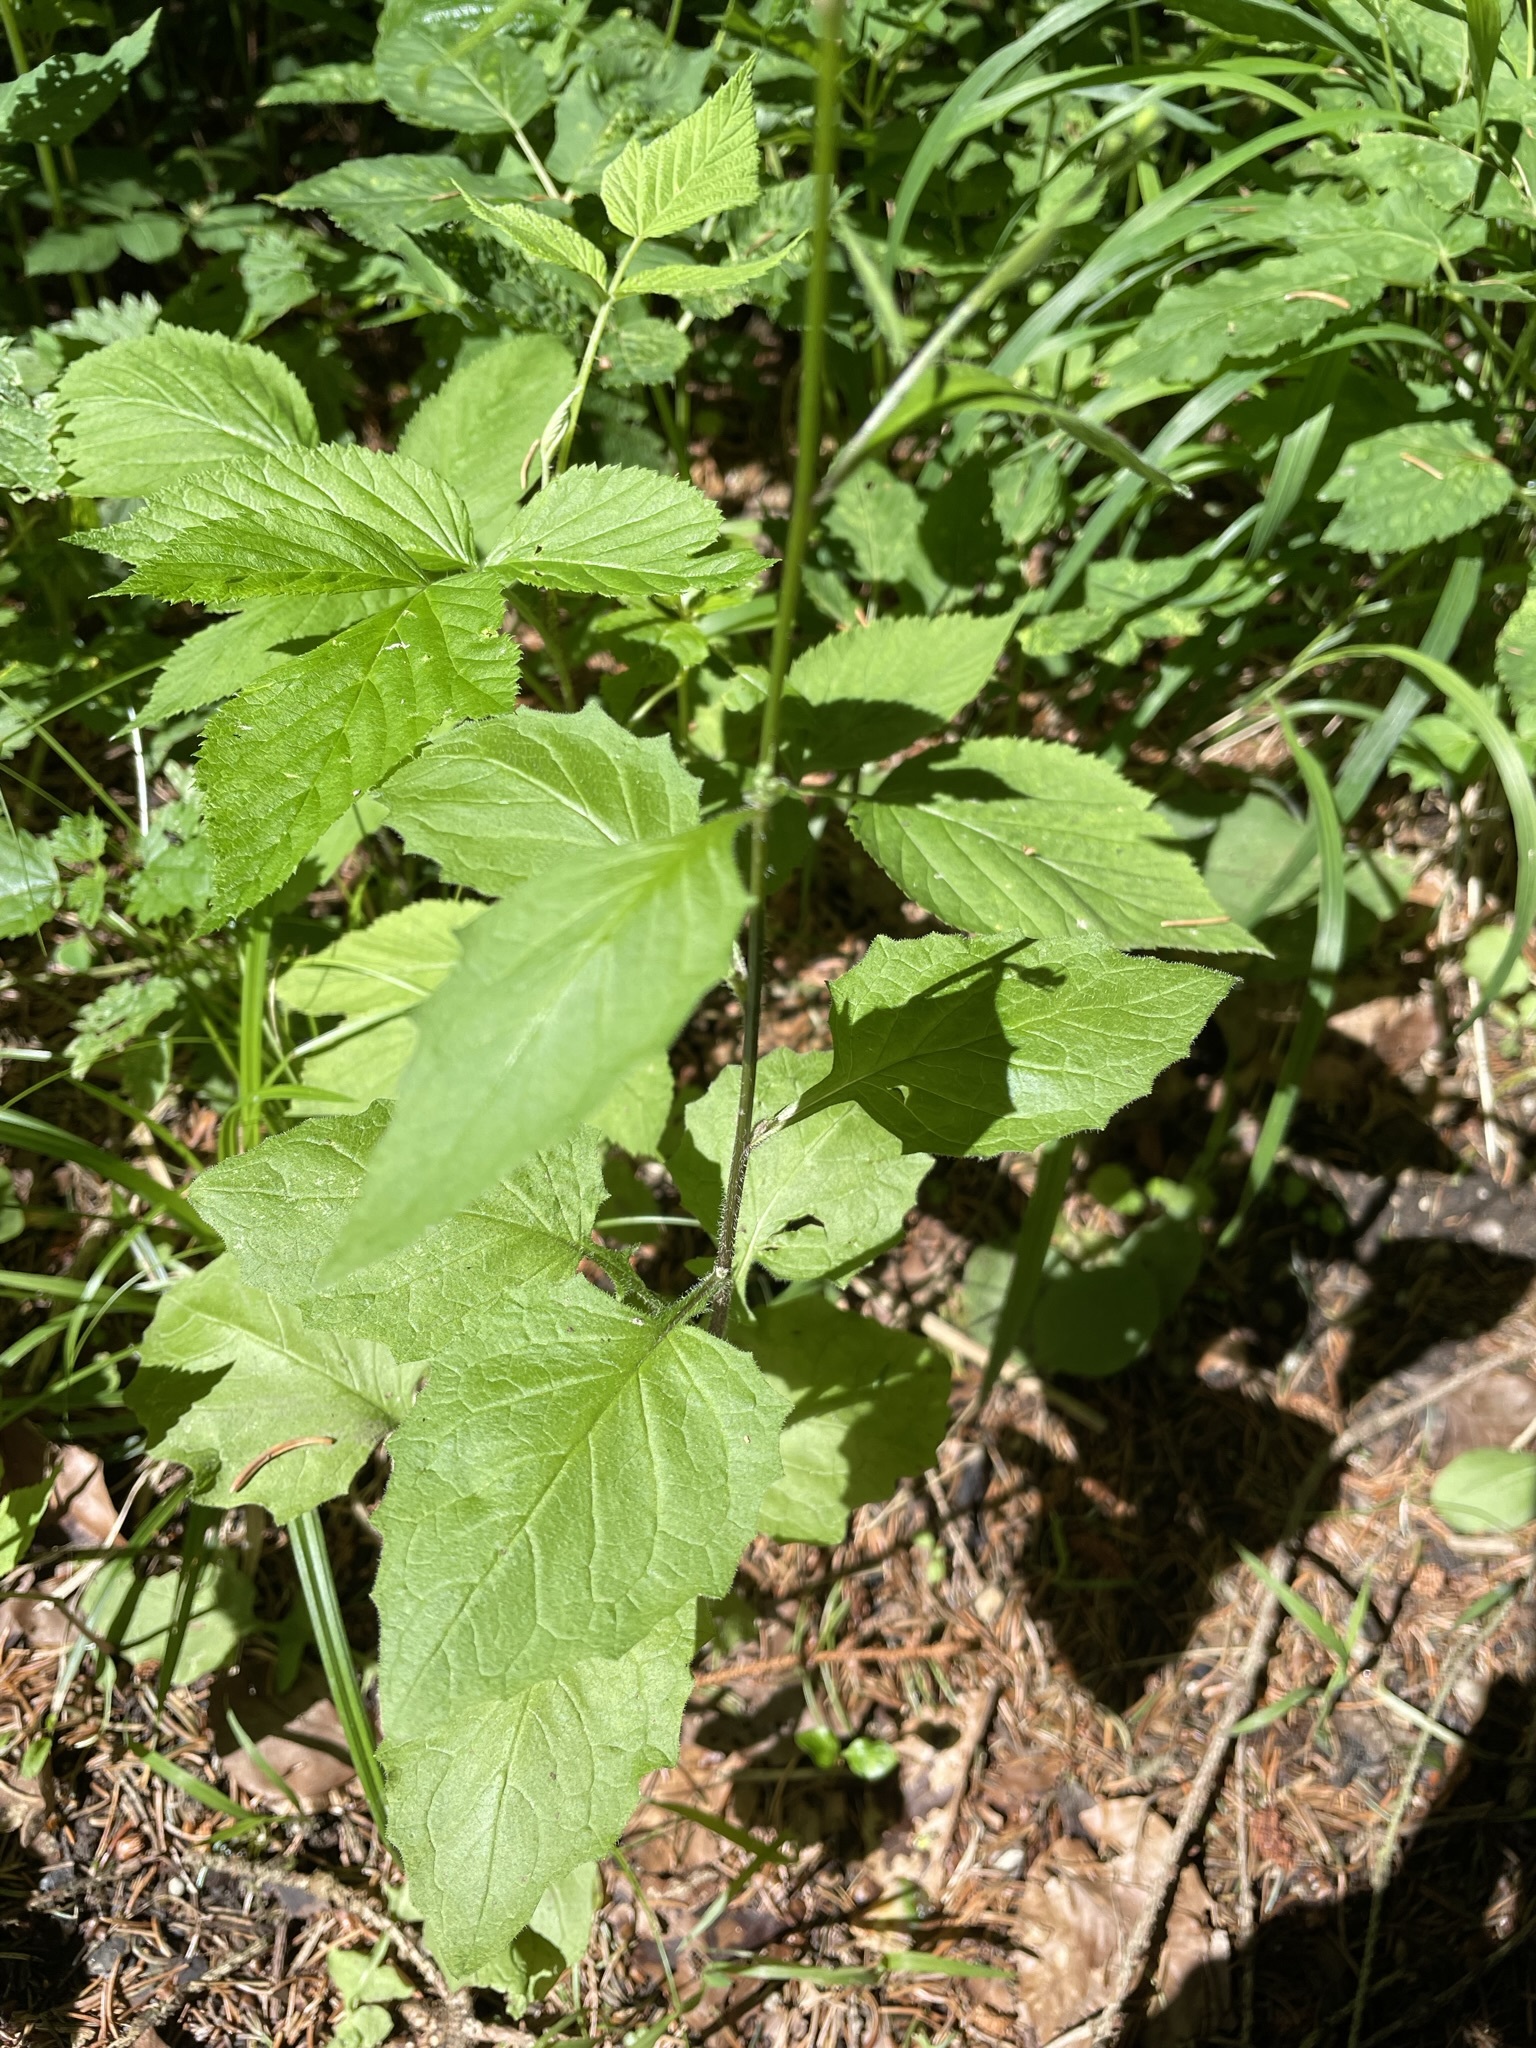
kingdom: Plantae
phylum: Tracheophyta
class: Magnoliopsida
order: Asterales
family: Asteraceae
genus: Lapsana
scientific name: Lapsana communis
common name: Nipplewort
